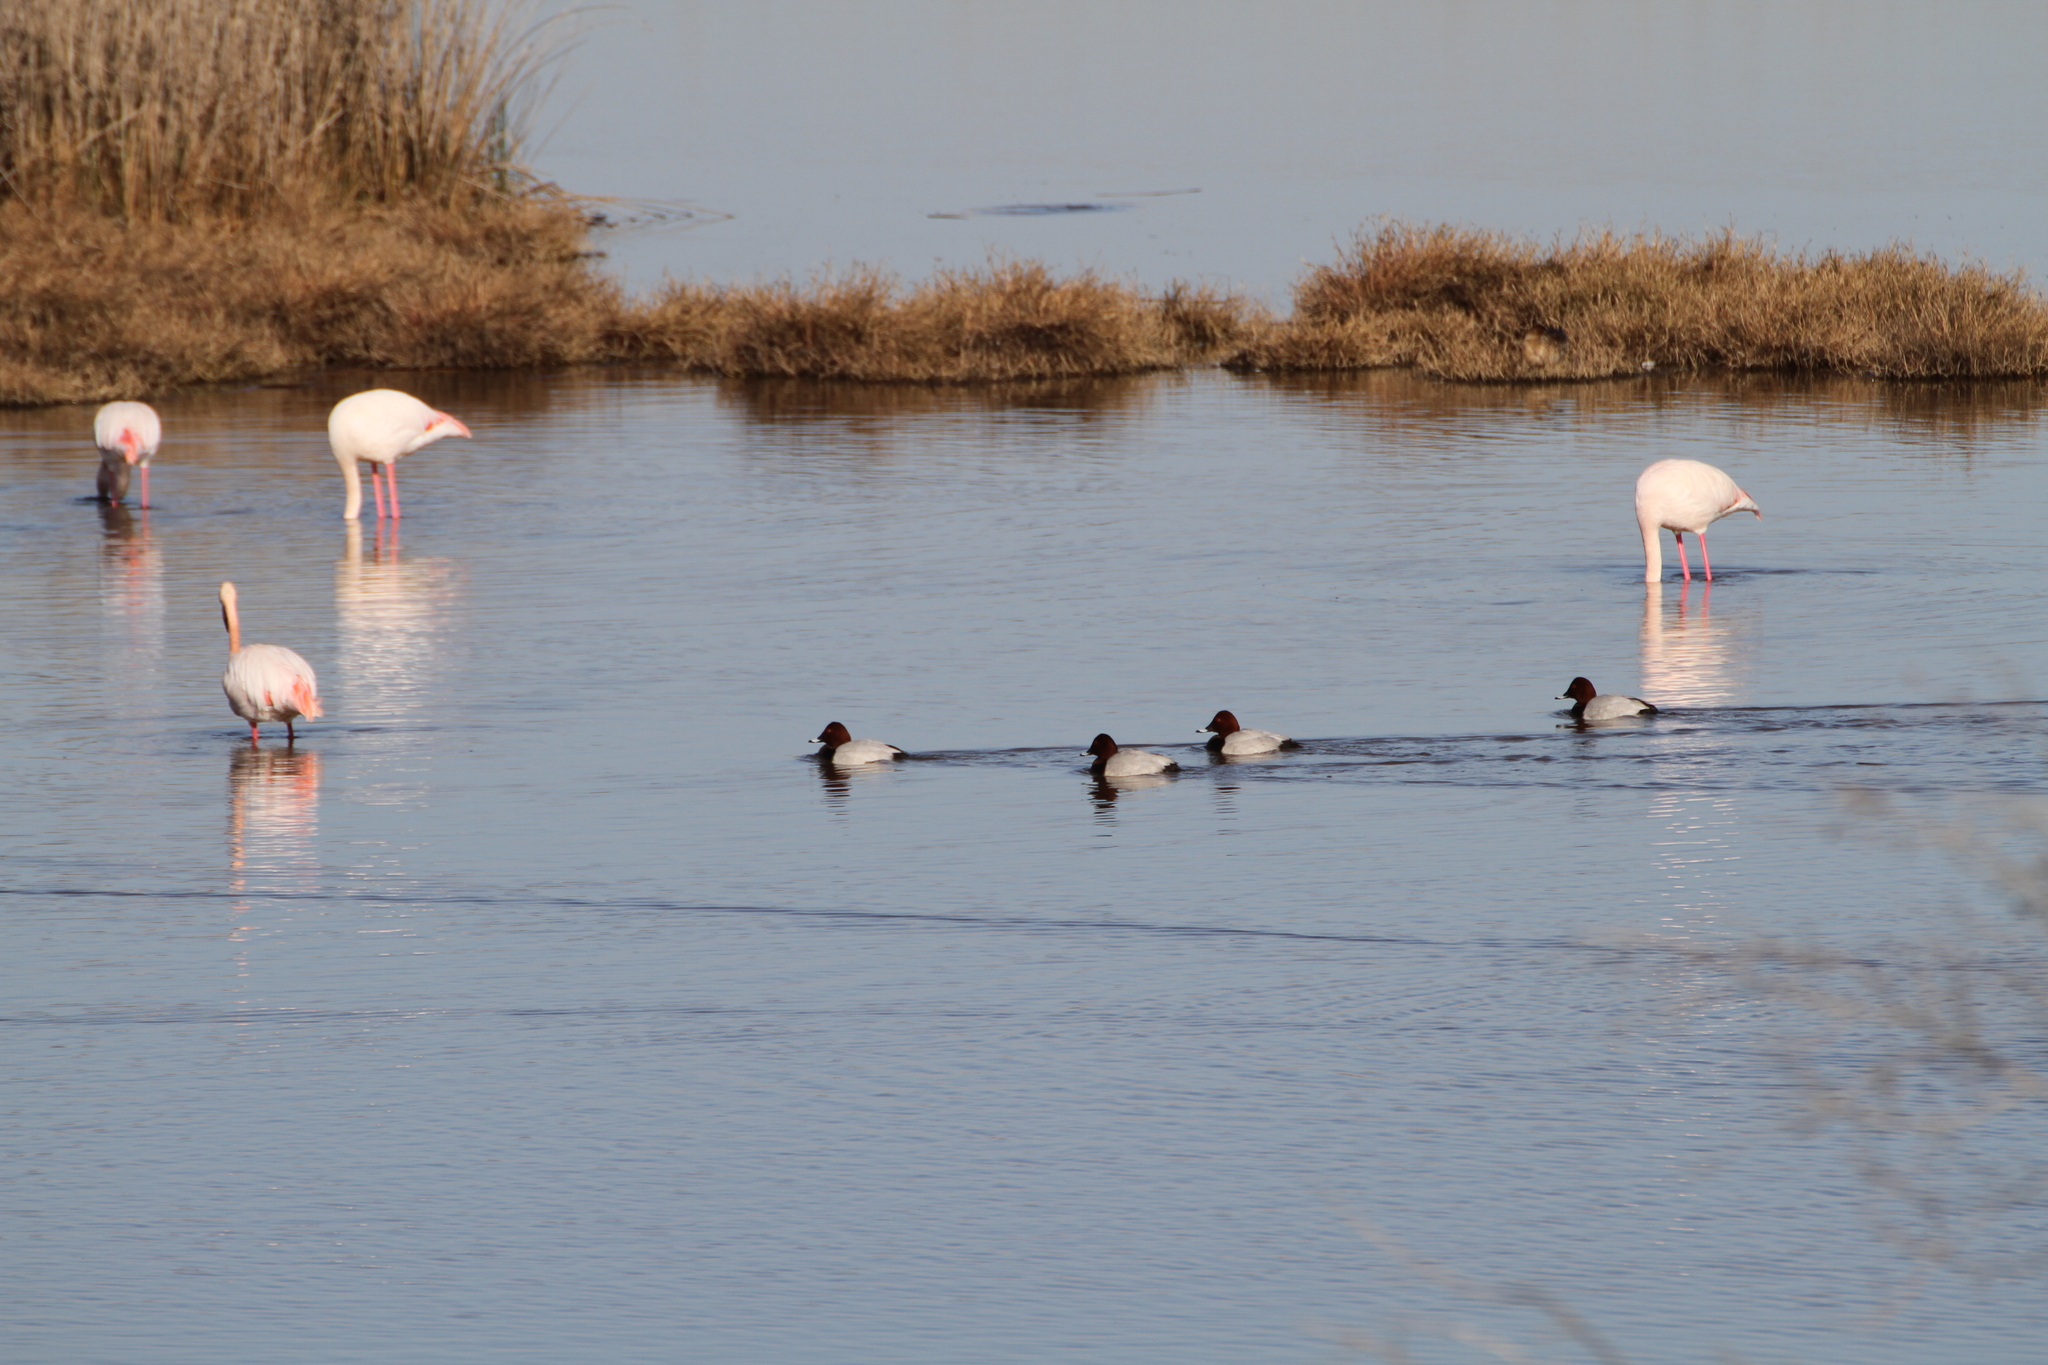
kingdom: Animalia
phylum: Chordata
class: Aves
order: Anseriformes
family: Anatidae
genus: Aythya
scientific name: Aythya ferina
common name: Common pochard
